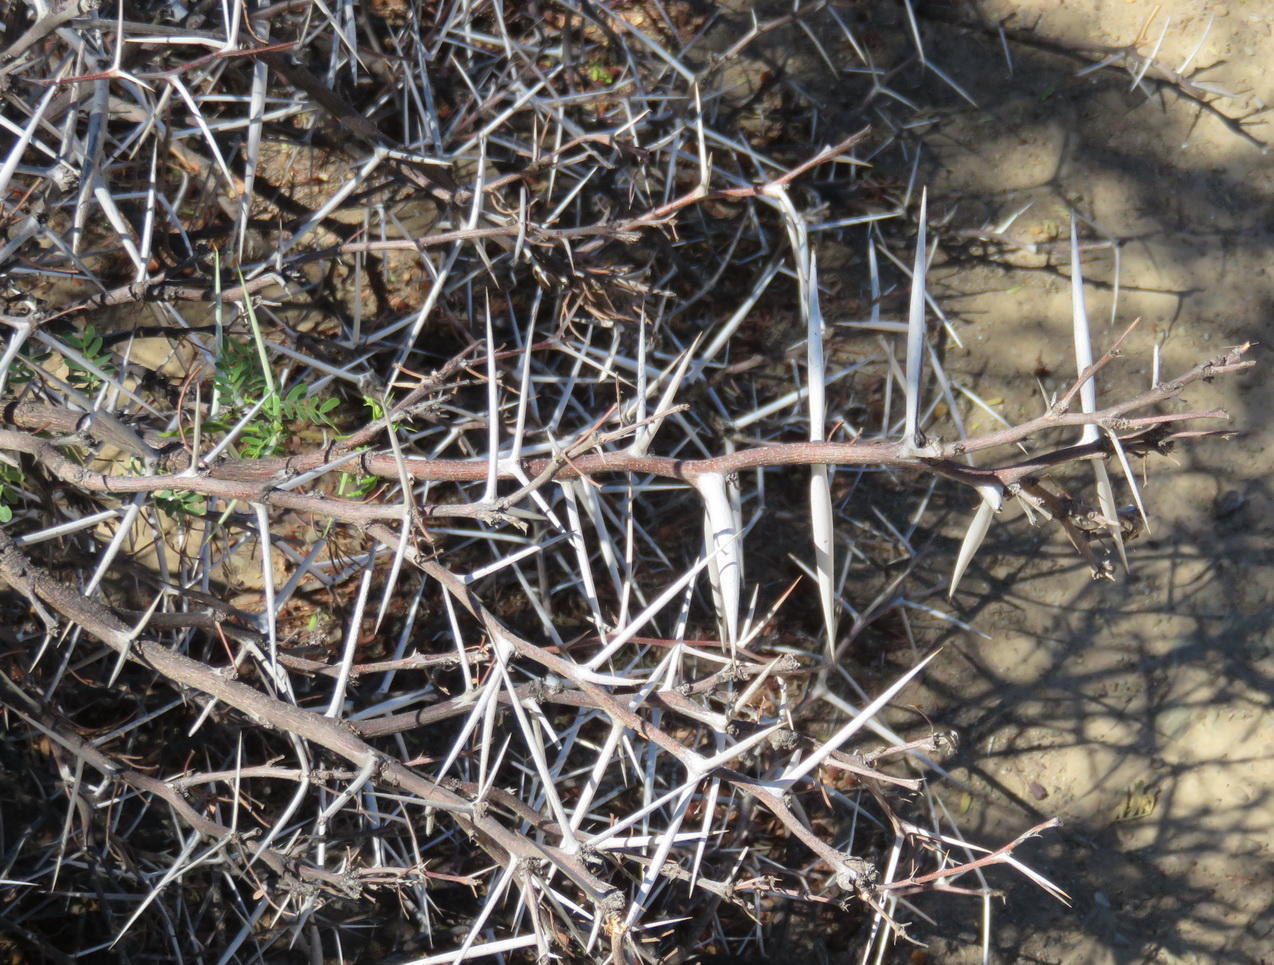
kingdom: Plantae
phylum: Tracheophyta
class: Magnoliopsida
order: Fabales
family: Fabaceae
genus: Vachellia
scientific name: Vachellia karroo
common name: Sweet thorn
